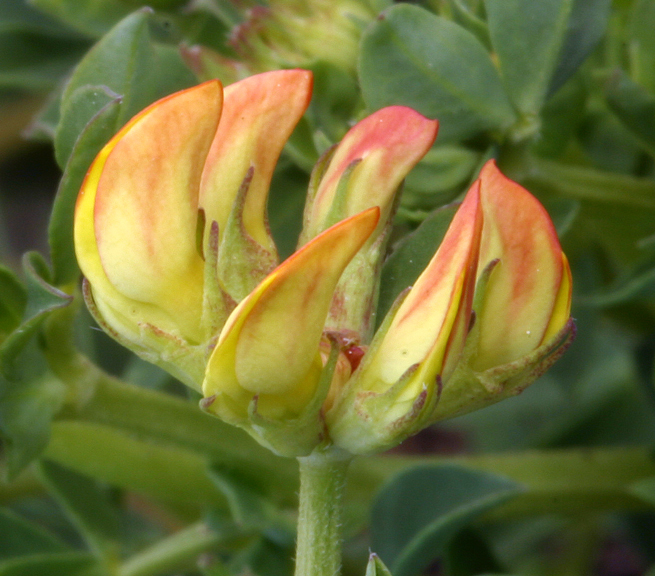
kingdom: Plantae
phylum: Tracheophyta
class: Magnoliopsida
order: Fabales
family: Fabaceae
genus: Lotus
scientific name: Lotus corniculatus
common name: Common bird's-foot-trefoil
